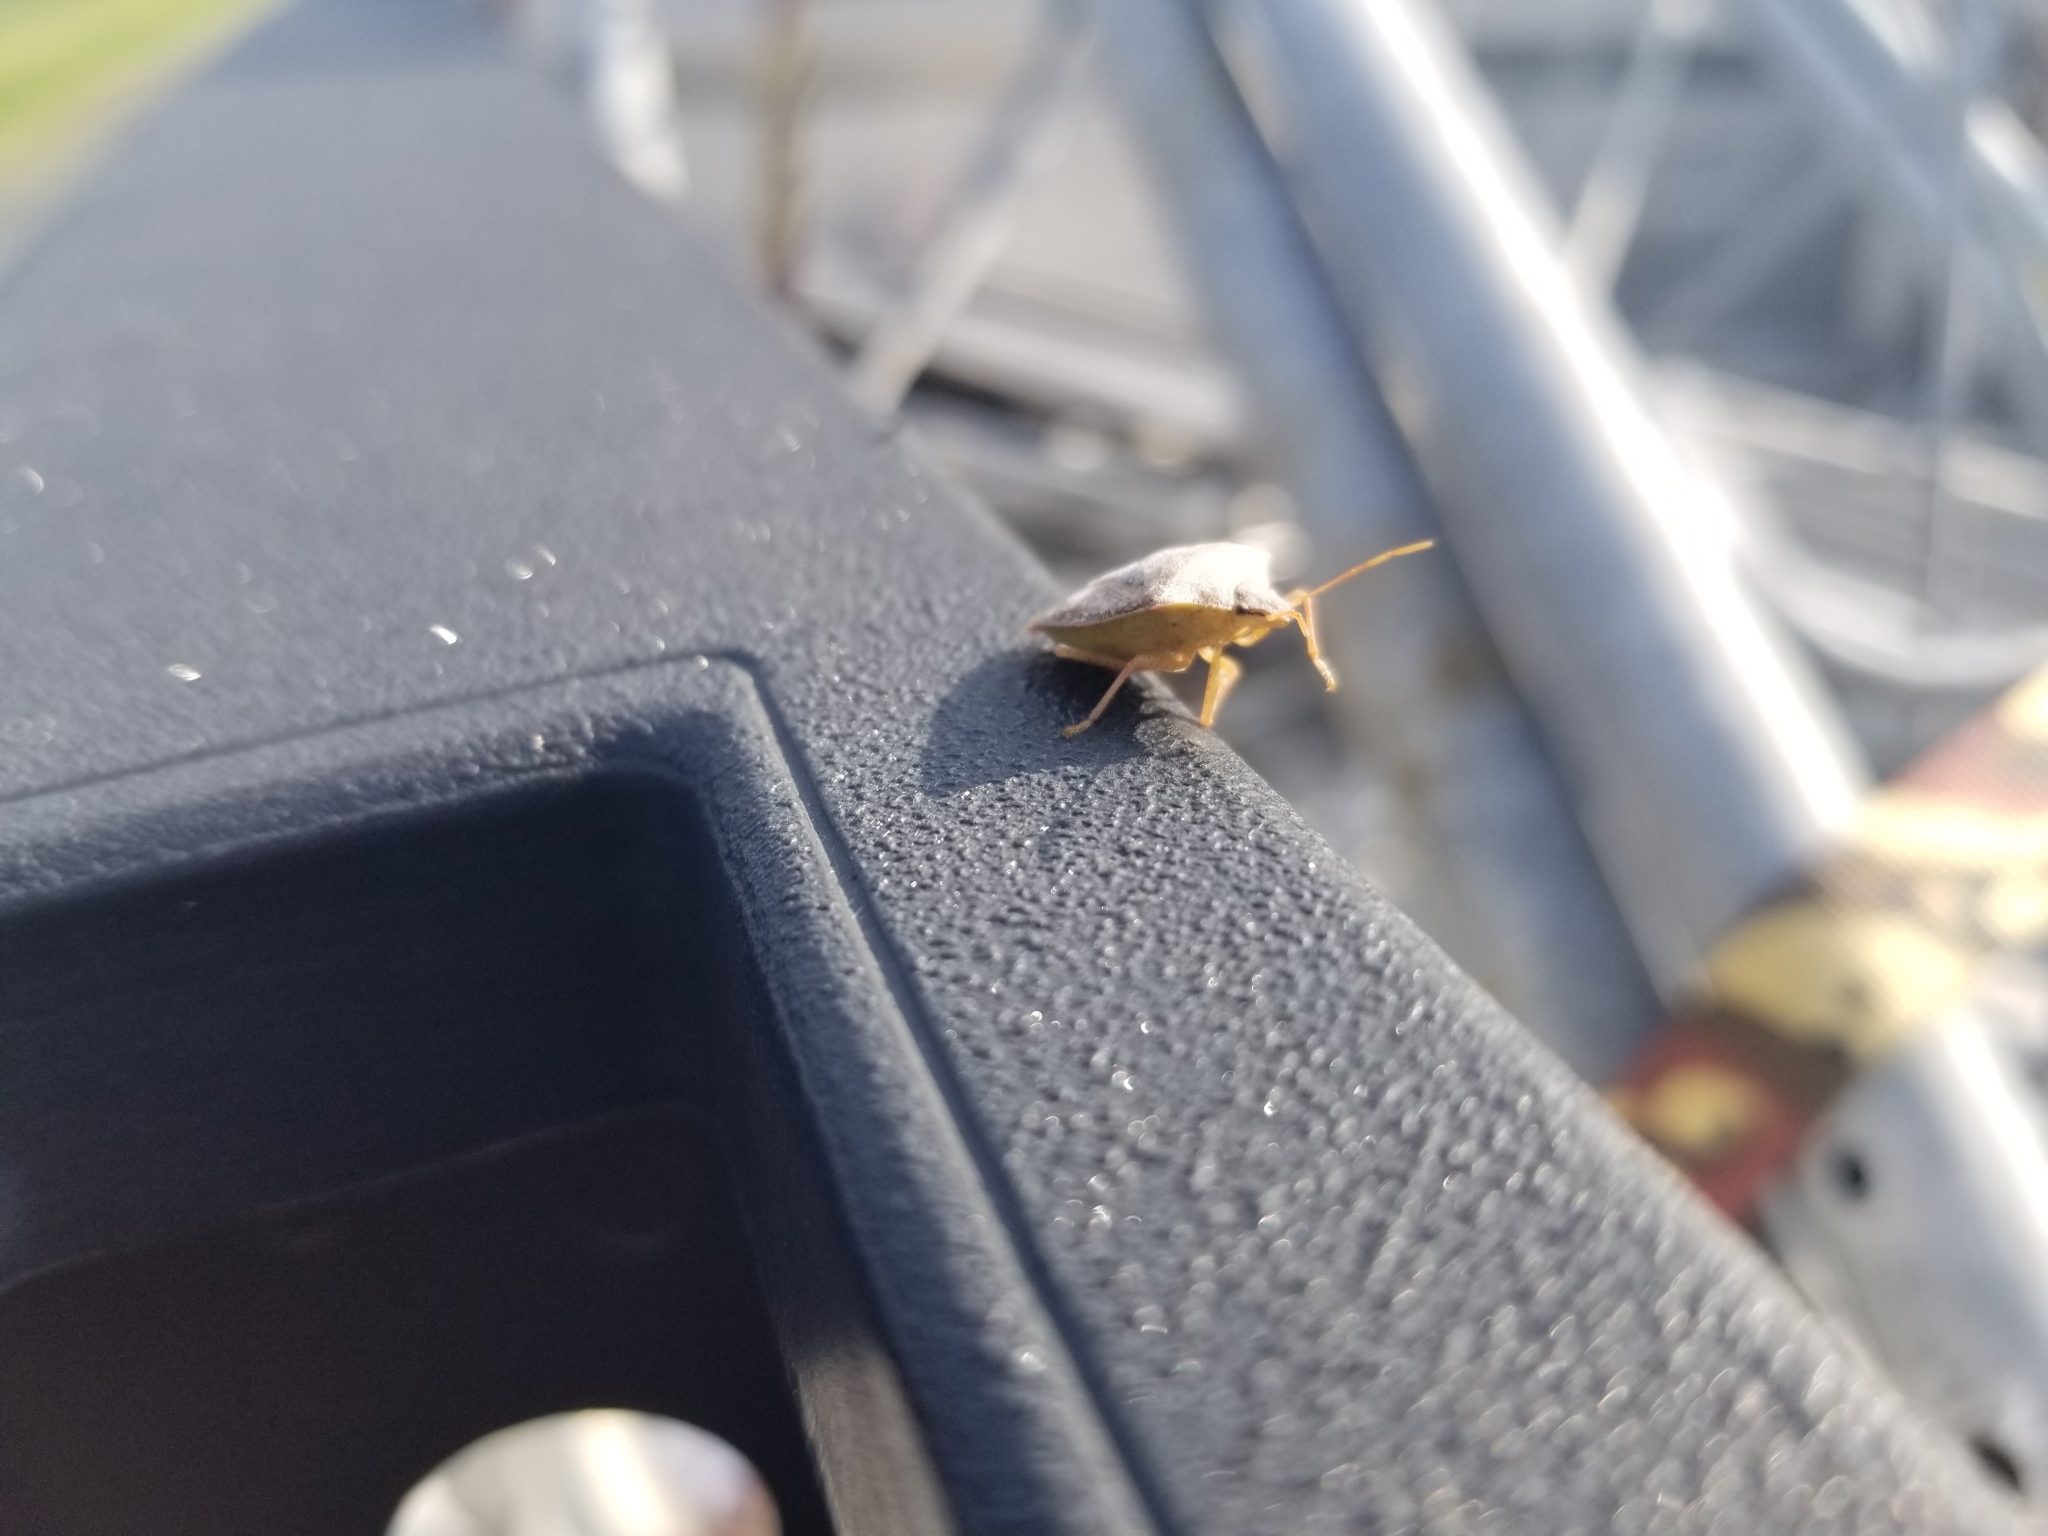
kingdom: Animalia
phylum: Arthropoda
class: Insecta
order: Hemiptera
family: Pentatomidae
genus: Euschistus
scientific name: Euschistus
